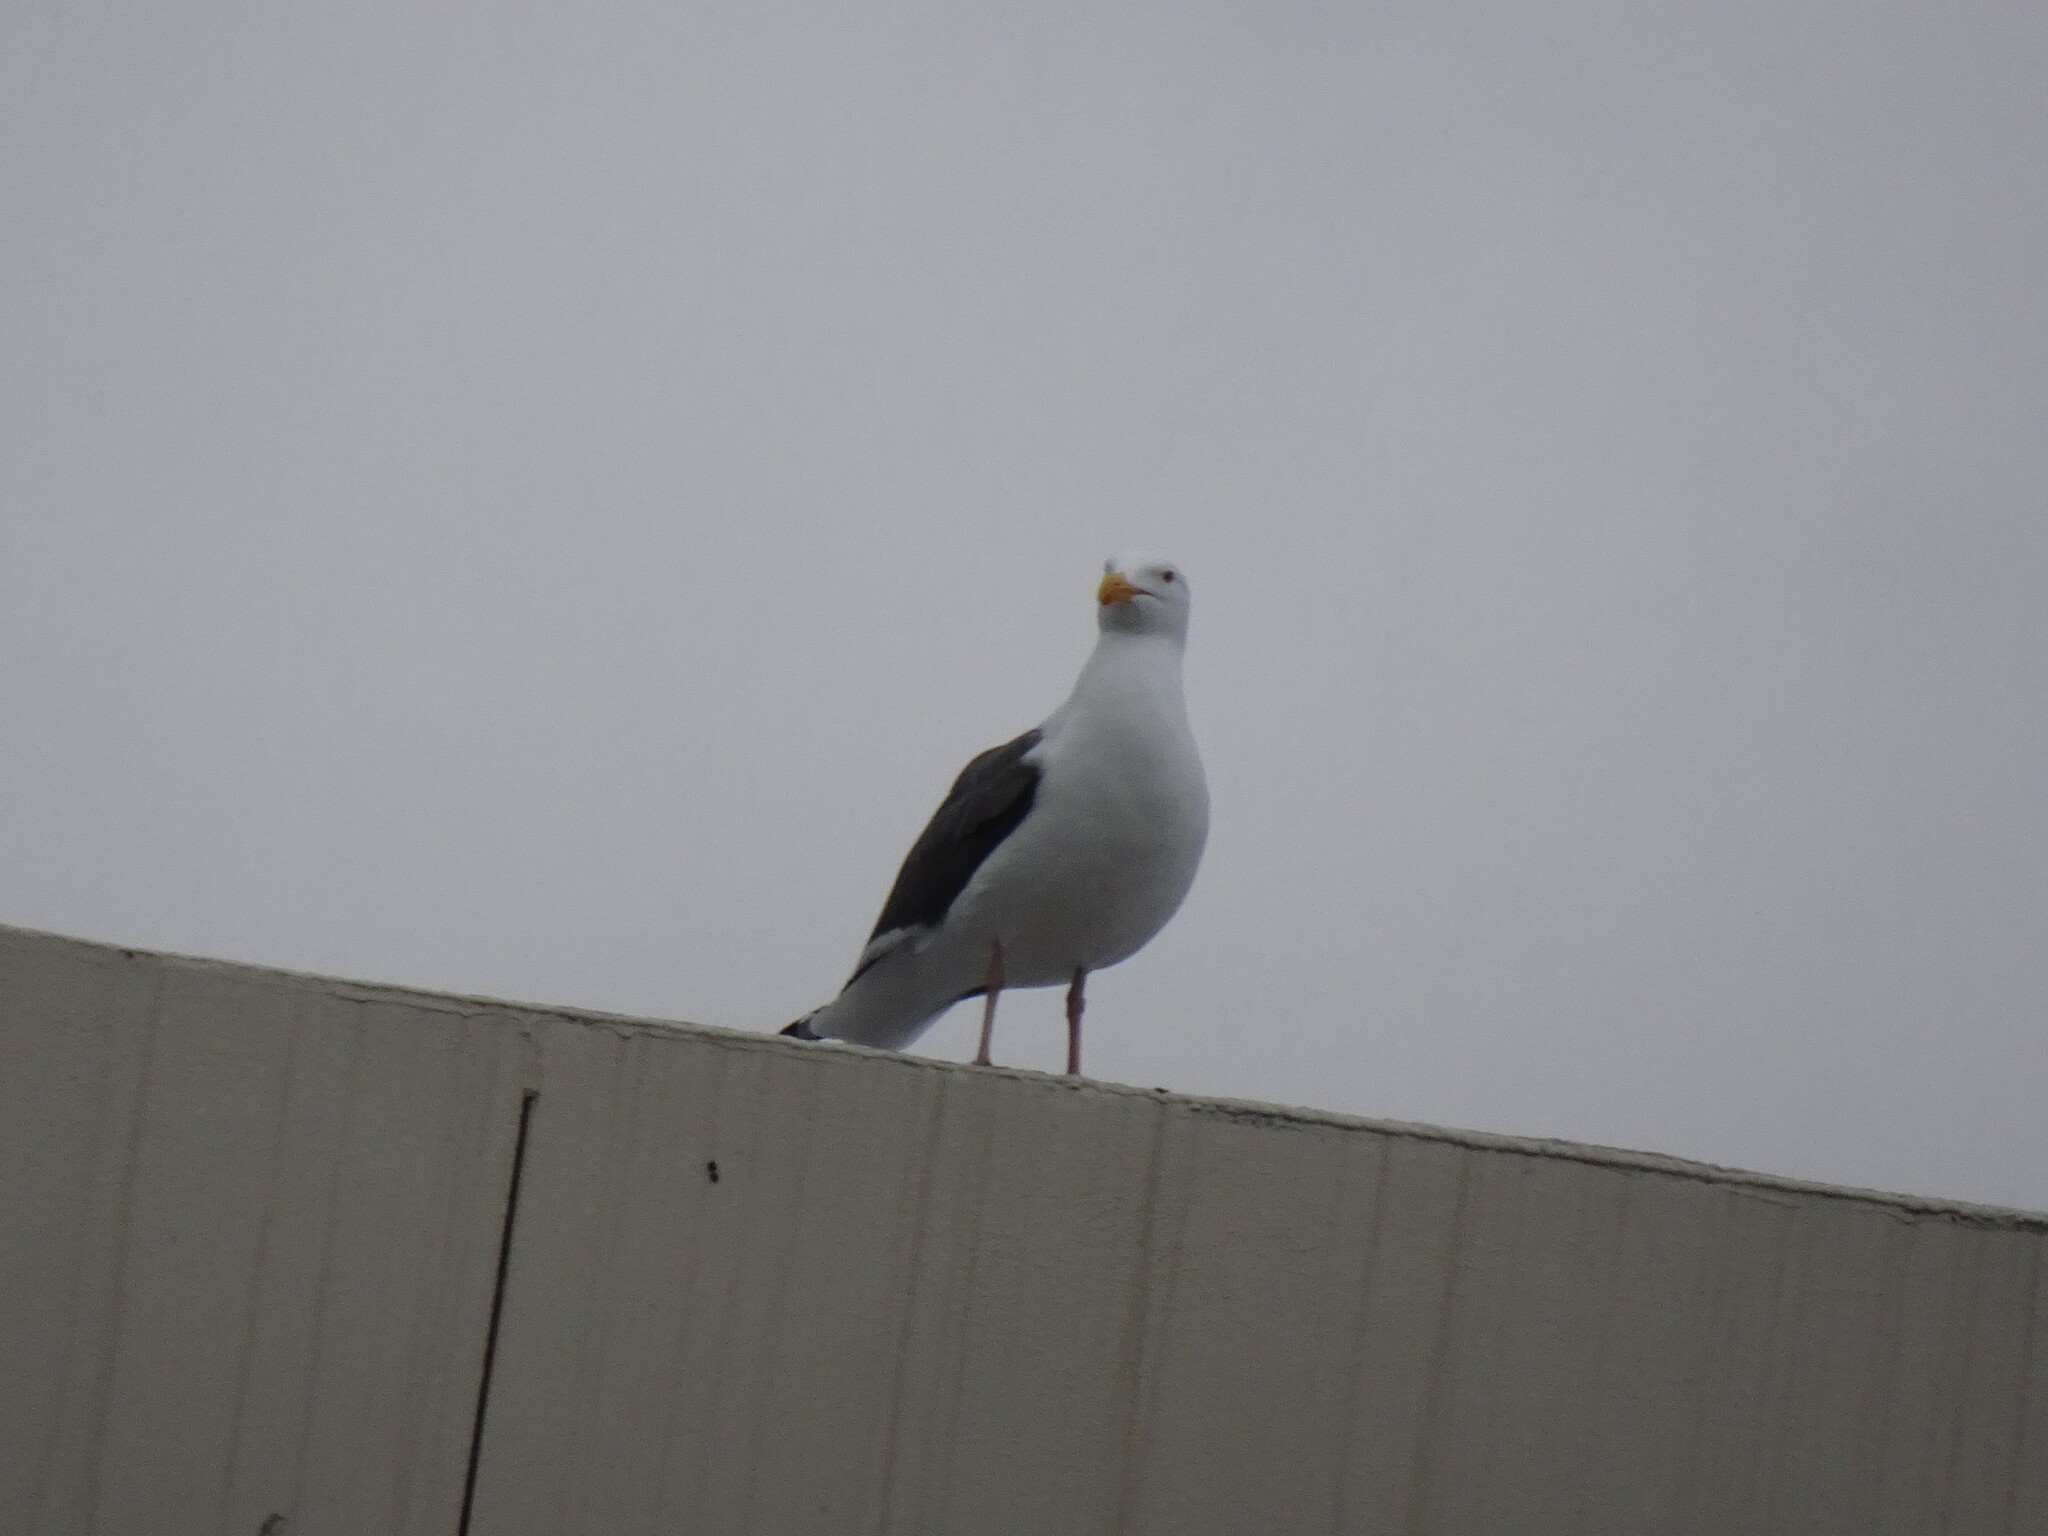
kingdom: Animalia
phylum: Chordata
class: Aves
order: Charadriiformes
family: Laridae
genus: Larus
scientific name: Larus occidentalis
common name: Western gull
